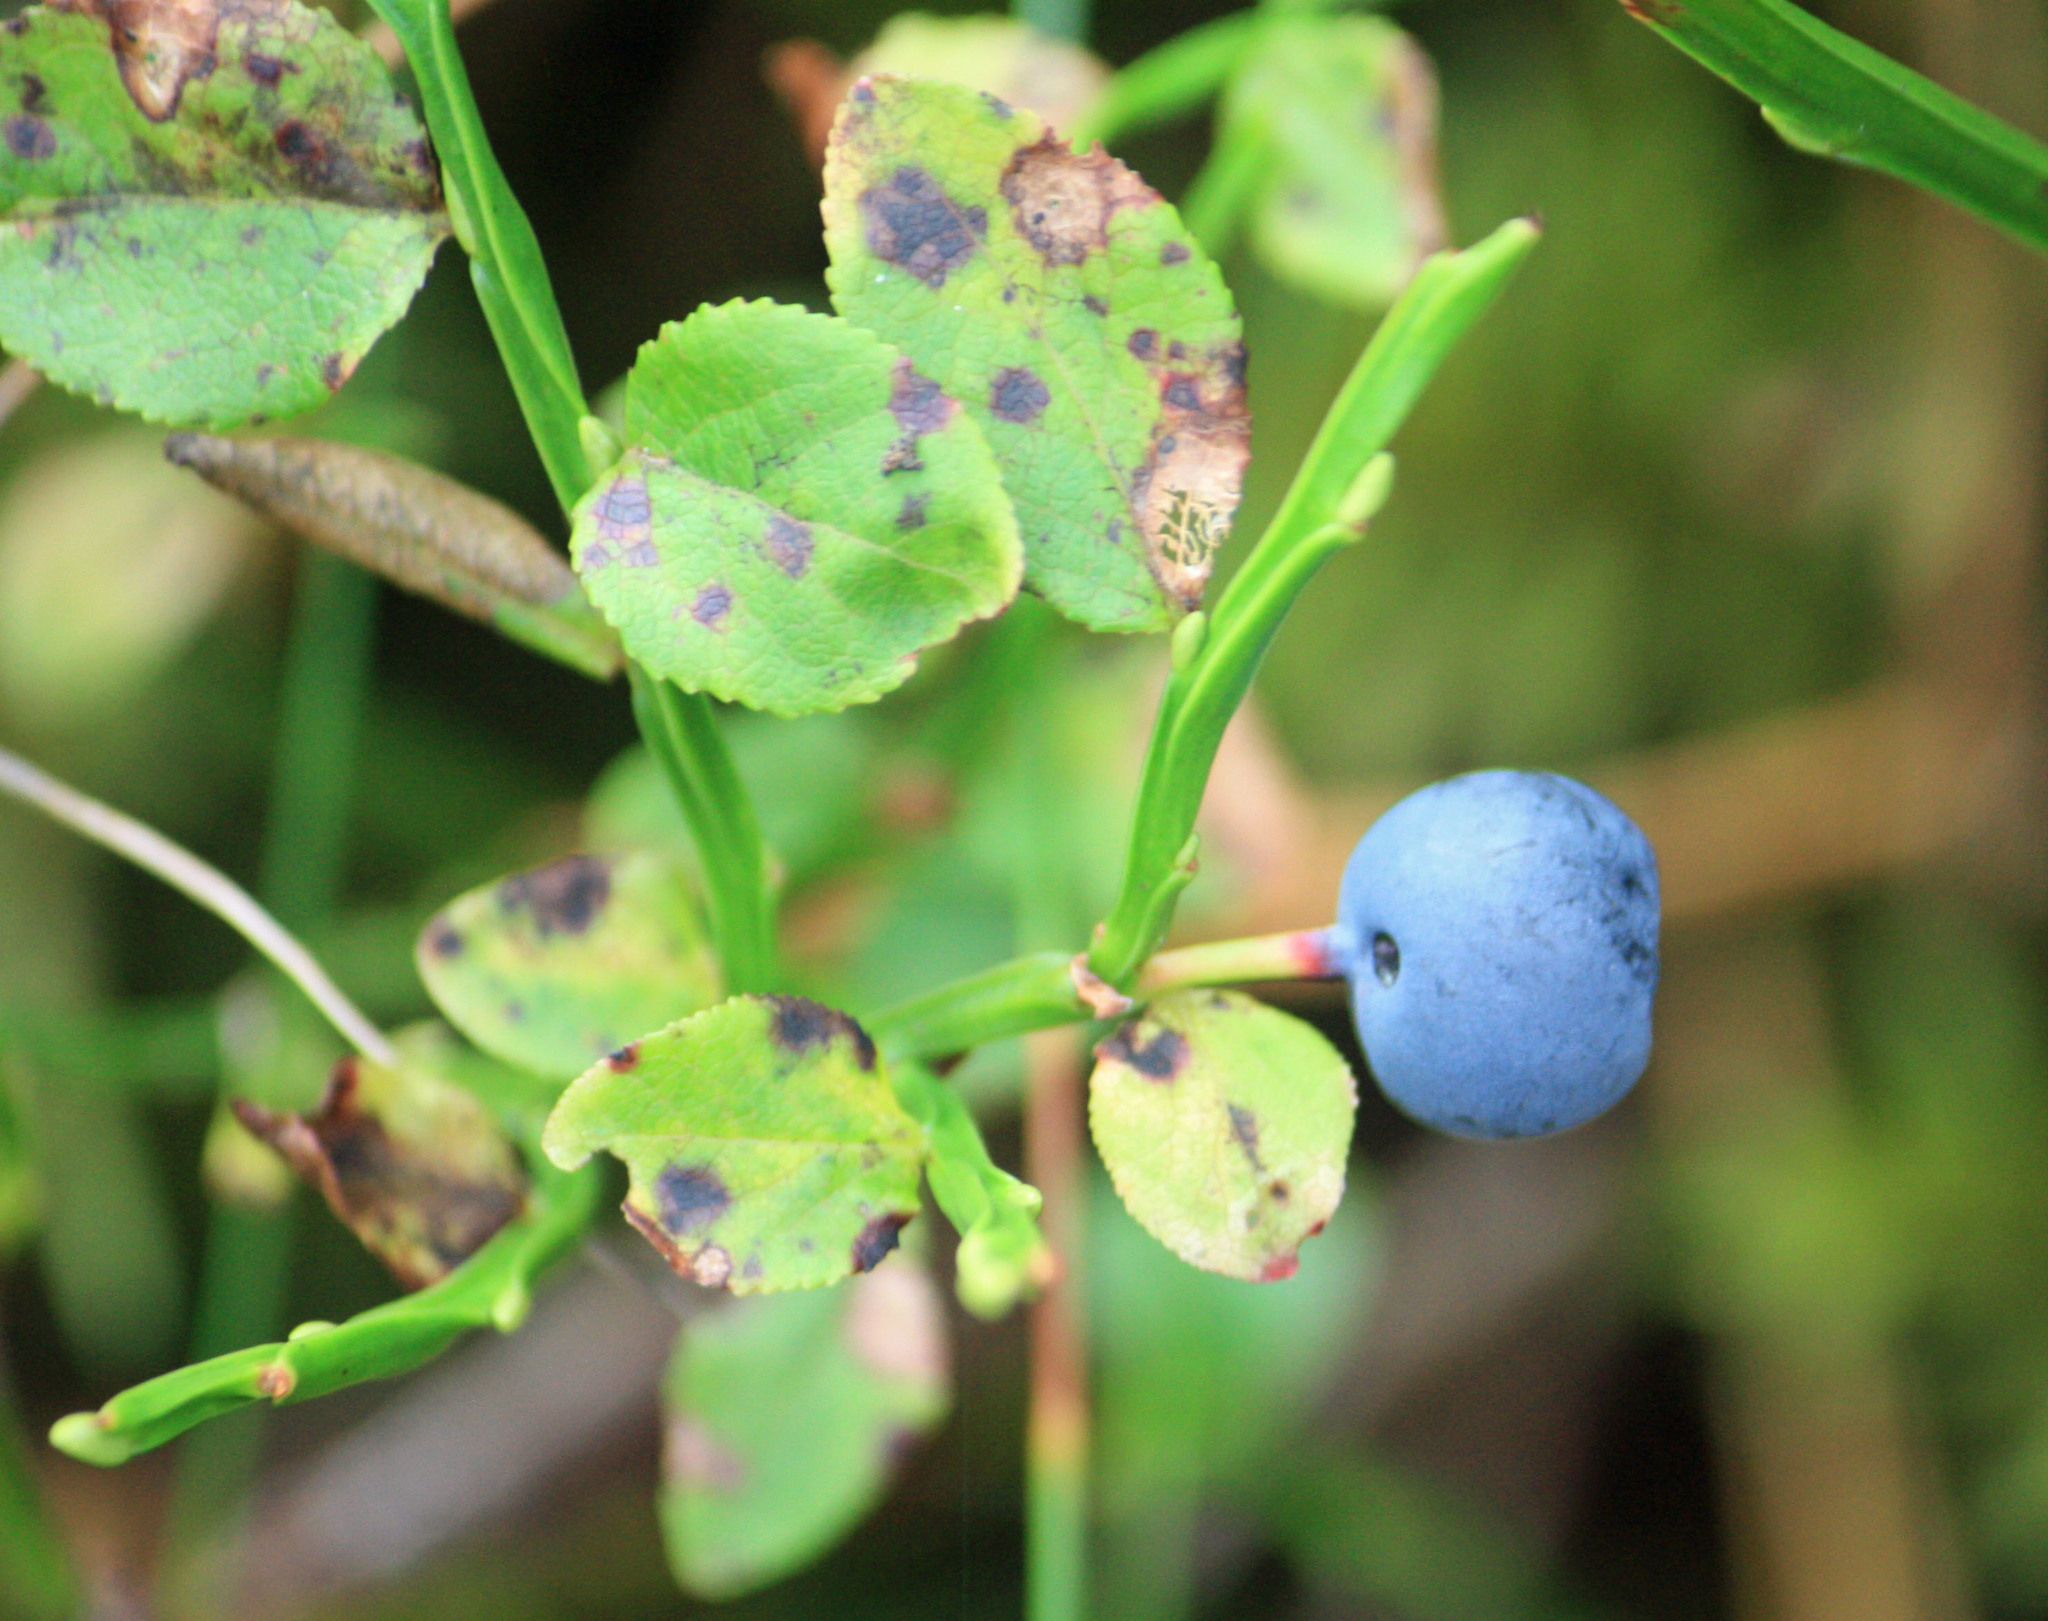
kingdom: Plantae
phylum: Tracheophyta
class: Magnoliopsida
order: Ericales
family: Ericaceae
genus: Vaccinium
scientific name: Vaccinium myrtillus
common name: Bilberry
